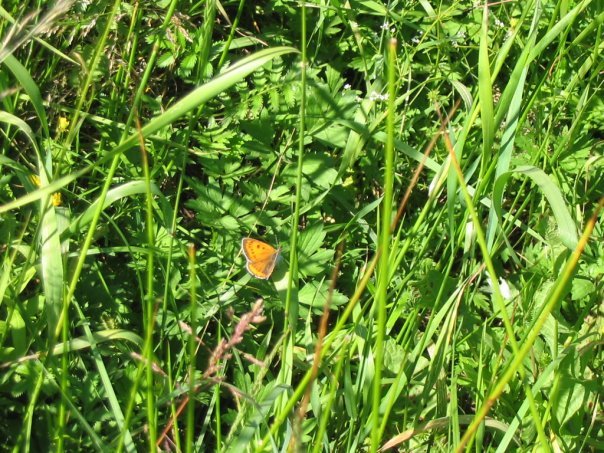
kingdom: Animalia
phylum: Arthropoda
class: Insecta
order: Lepidoptera
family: Lycaenidae
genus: Lycaena
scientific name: Lycaena dispar
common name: Large copper
